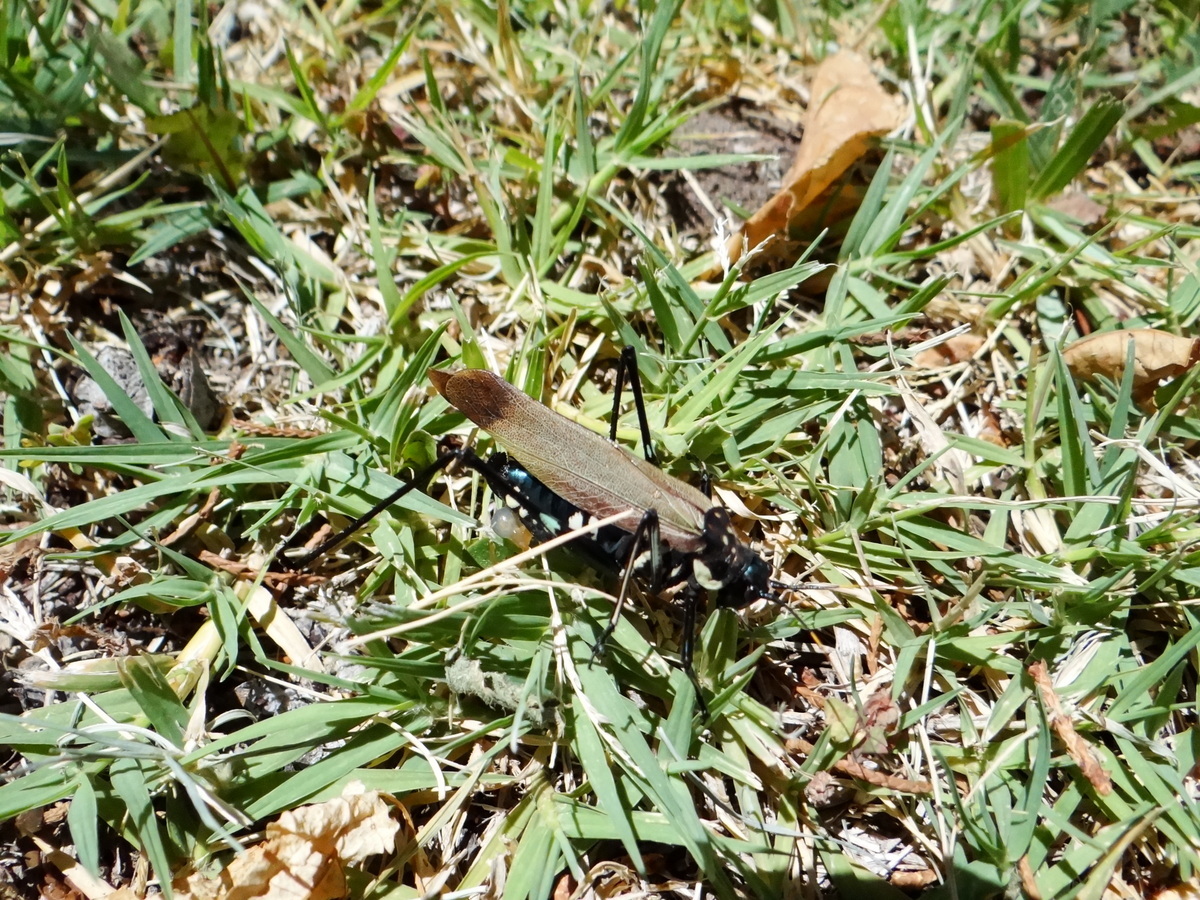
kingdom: Animalia
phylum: Arthropoda
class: Insecta
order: Orthoptera
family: Tettigoniidae
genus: Scaphura
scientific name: Scaphura elegans
